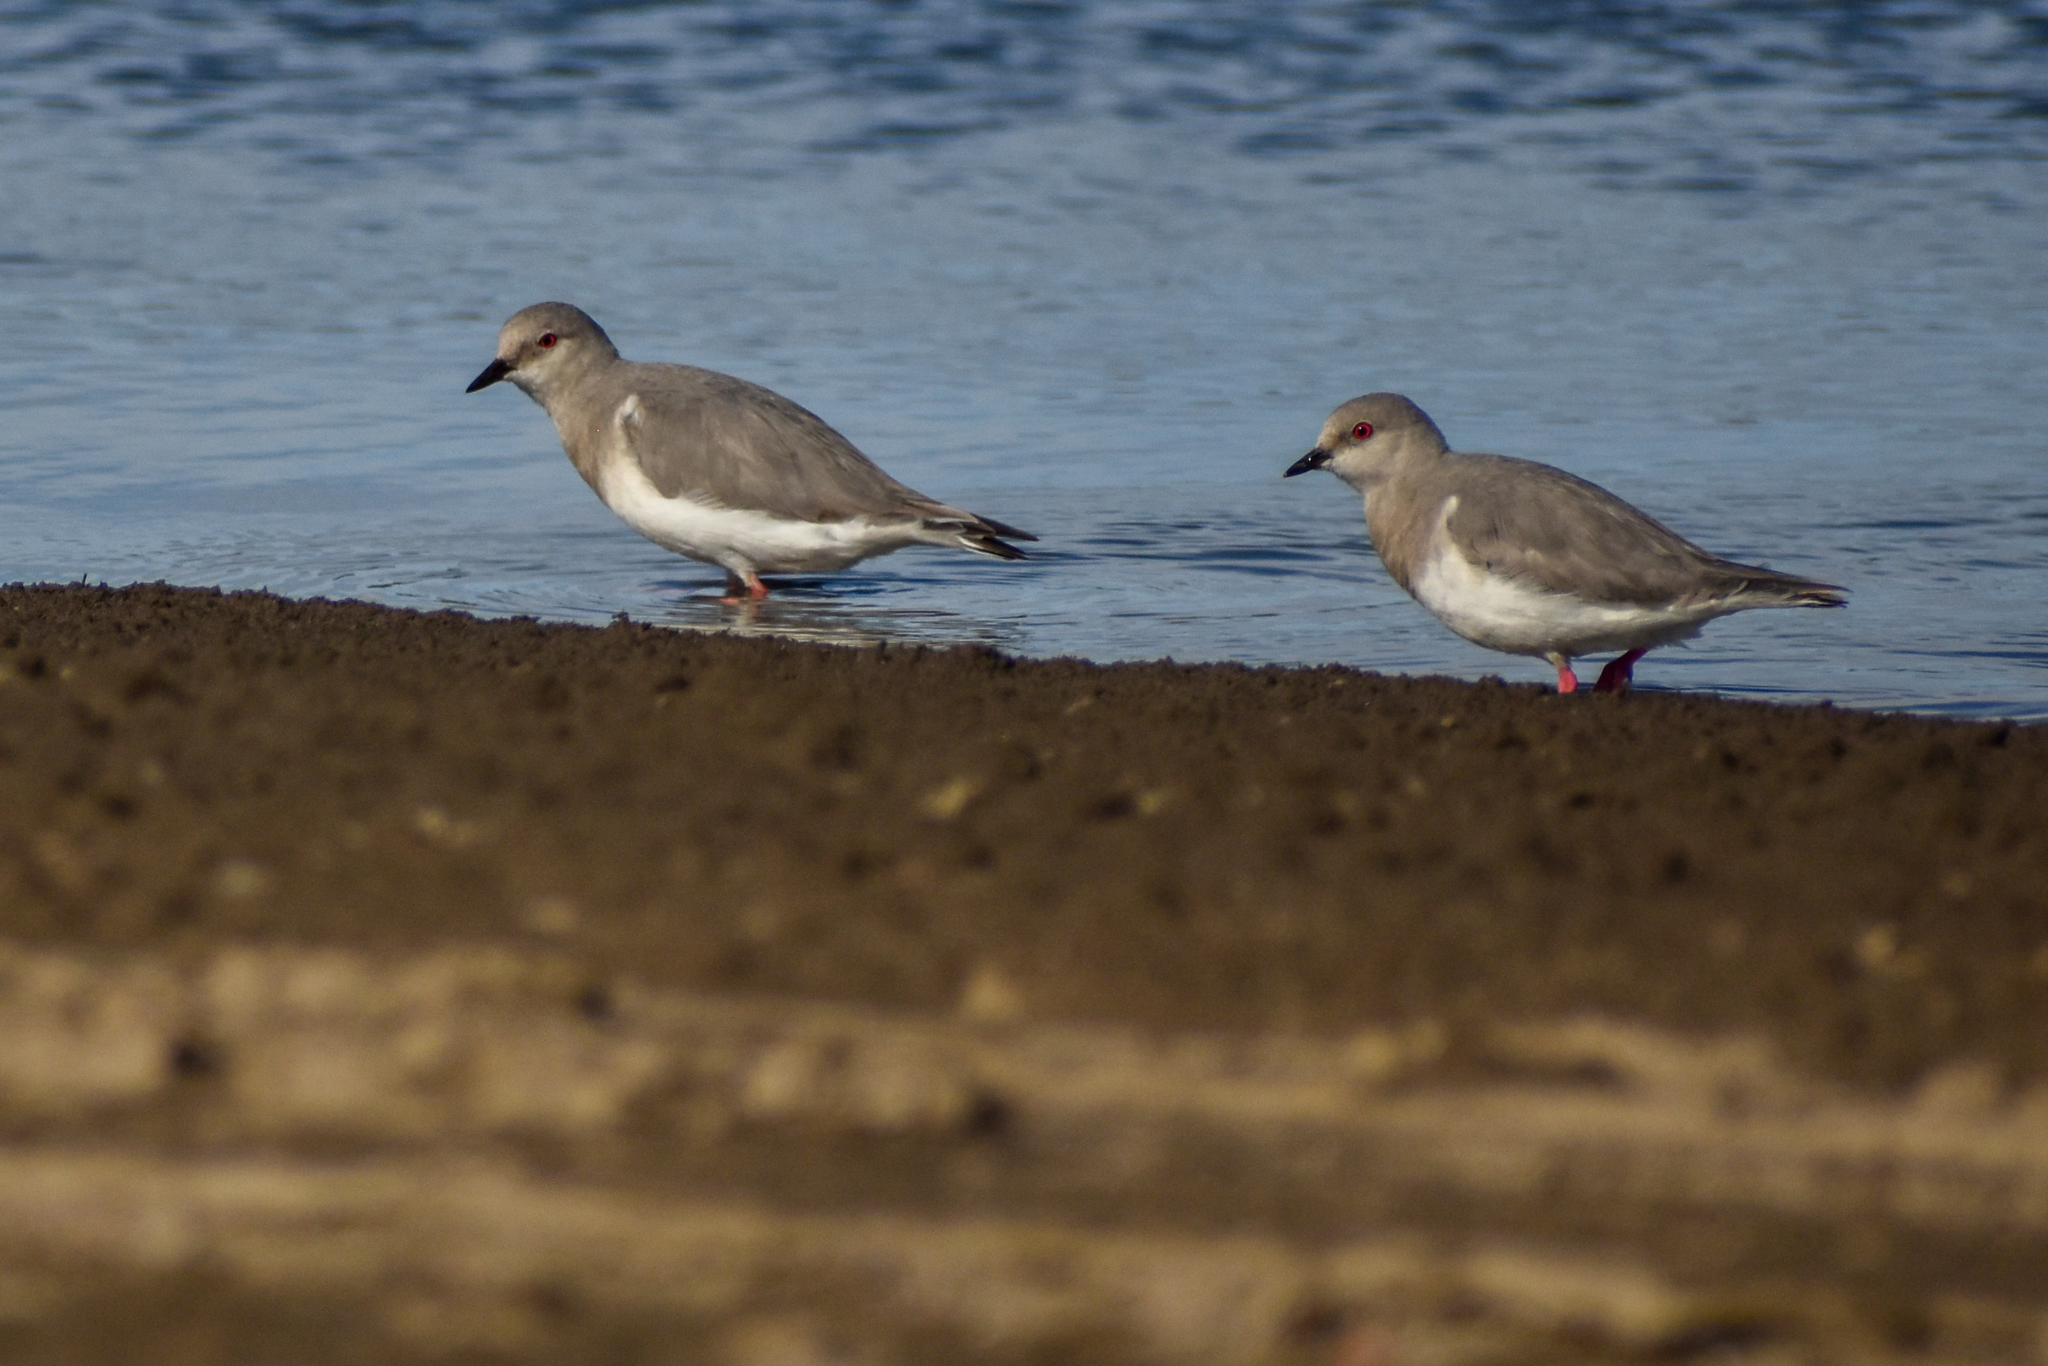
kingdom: Animalia
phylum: Chordata
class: Aves
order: Charadriiformes
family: Pluvianellidae
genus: Pluvianellus
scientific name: Pluvianellus socialis
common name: Magellanic plover
